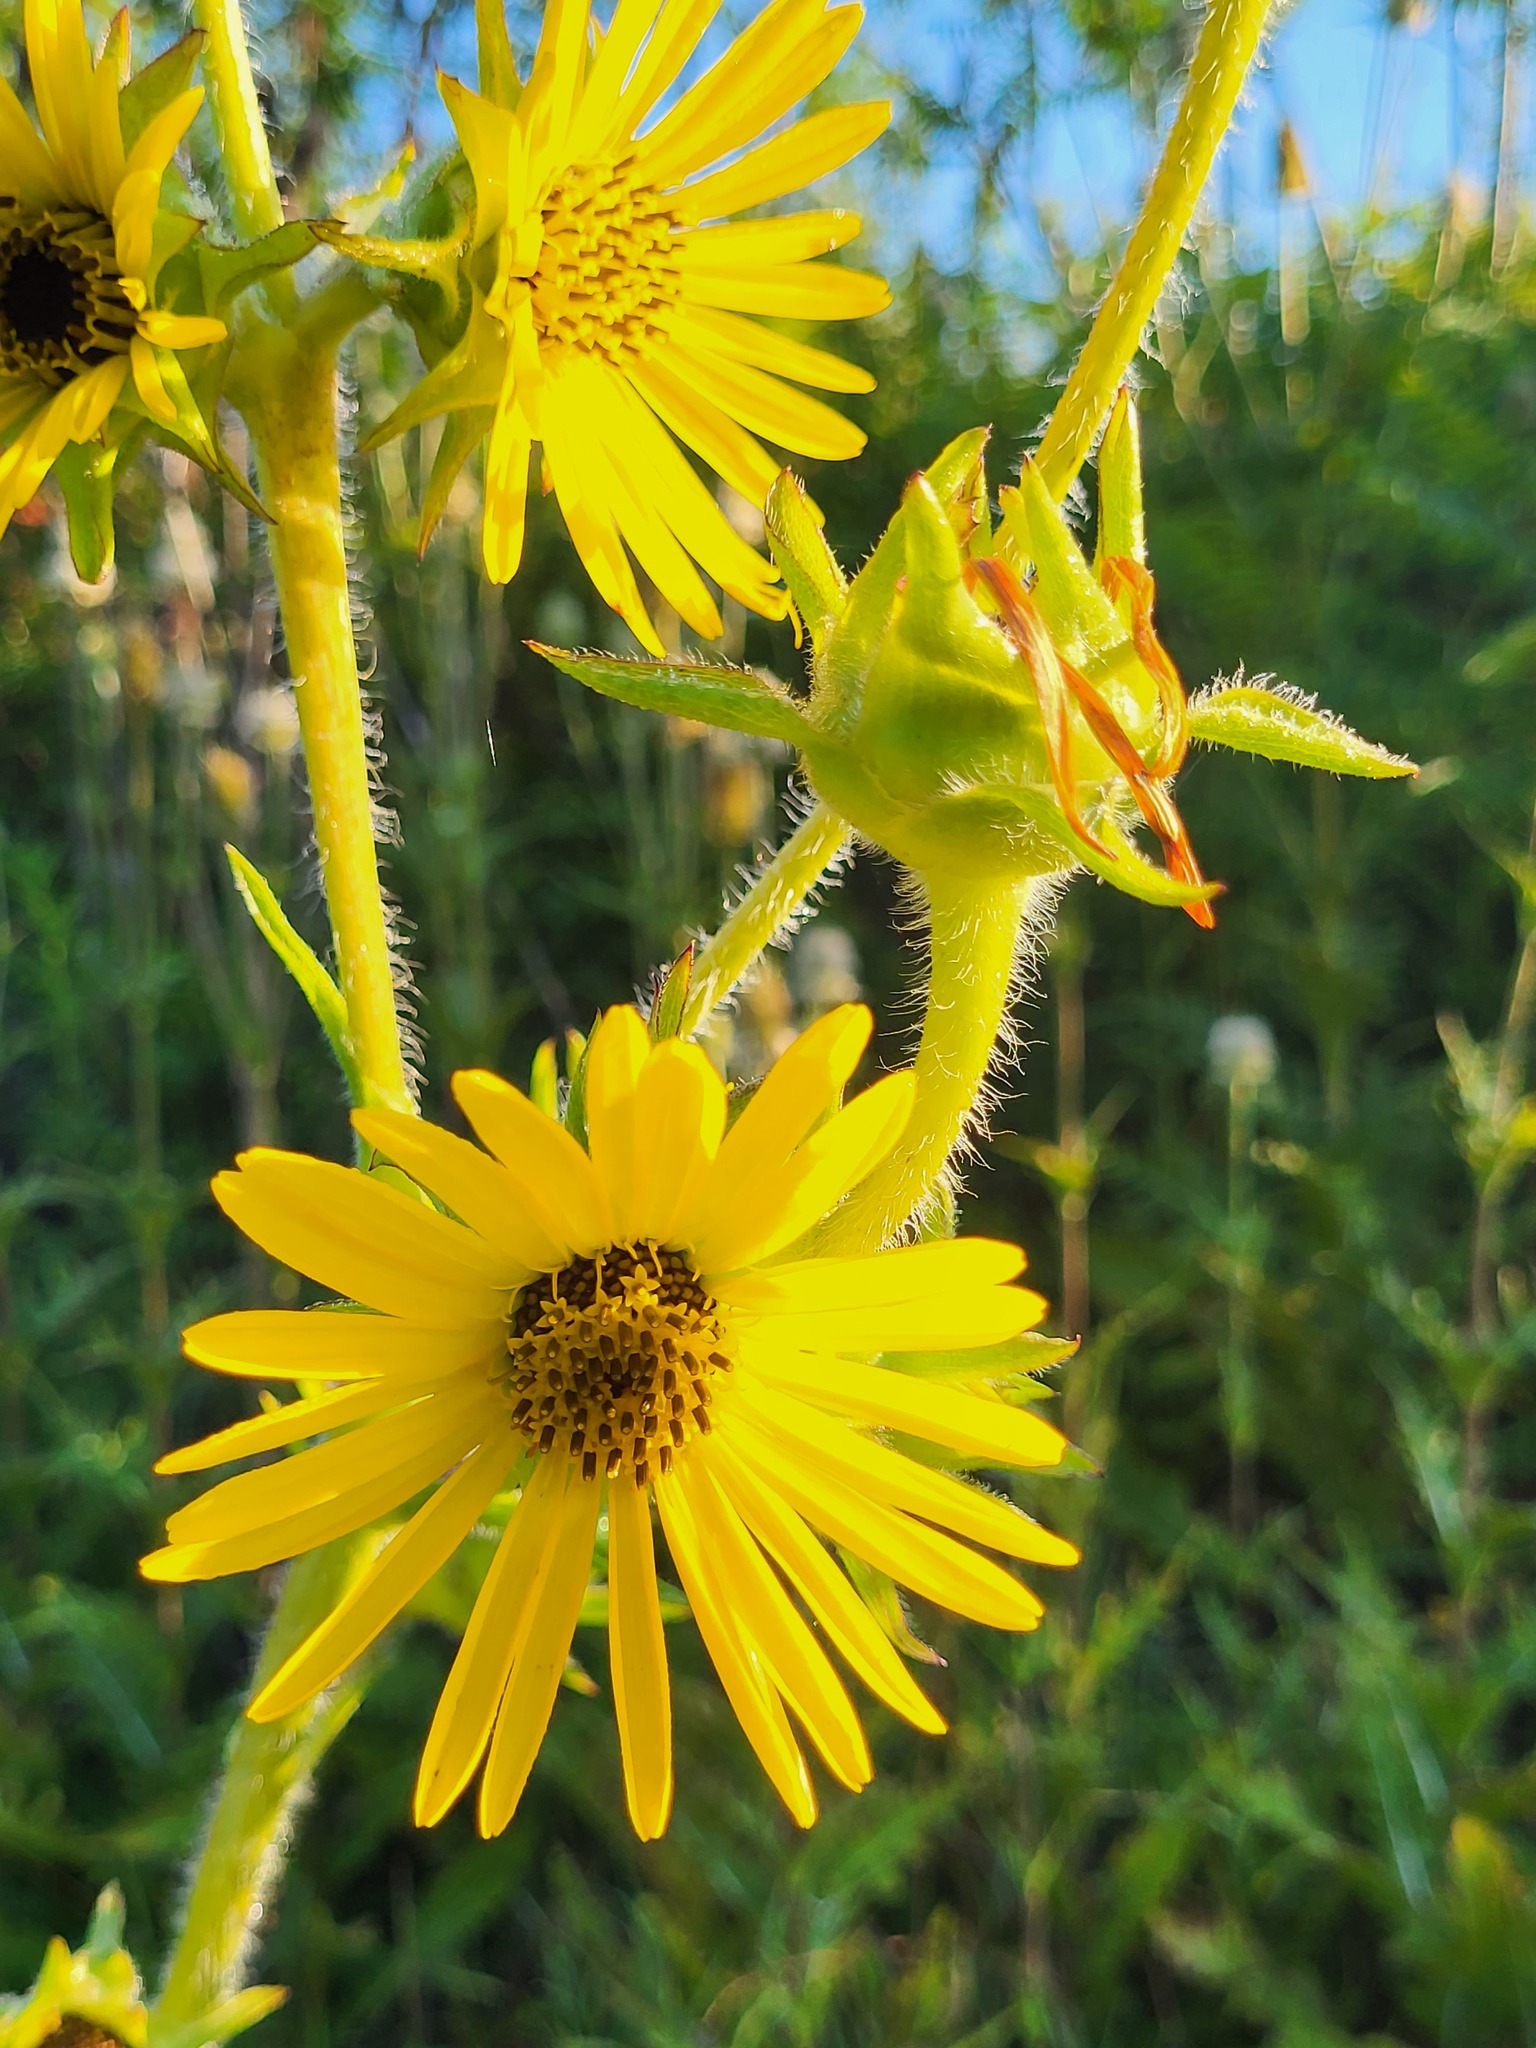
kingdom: Plantae
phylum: Tracheophyta
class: Magnoliopsida
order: Asterales
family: Asteraceae
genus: Silphium
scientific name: Silphium laciniatum
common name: Polarplant
